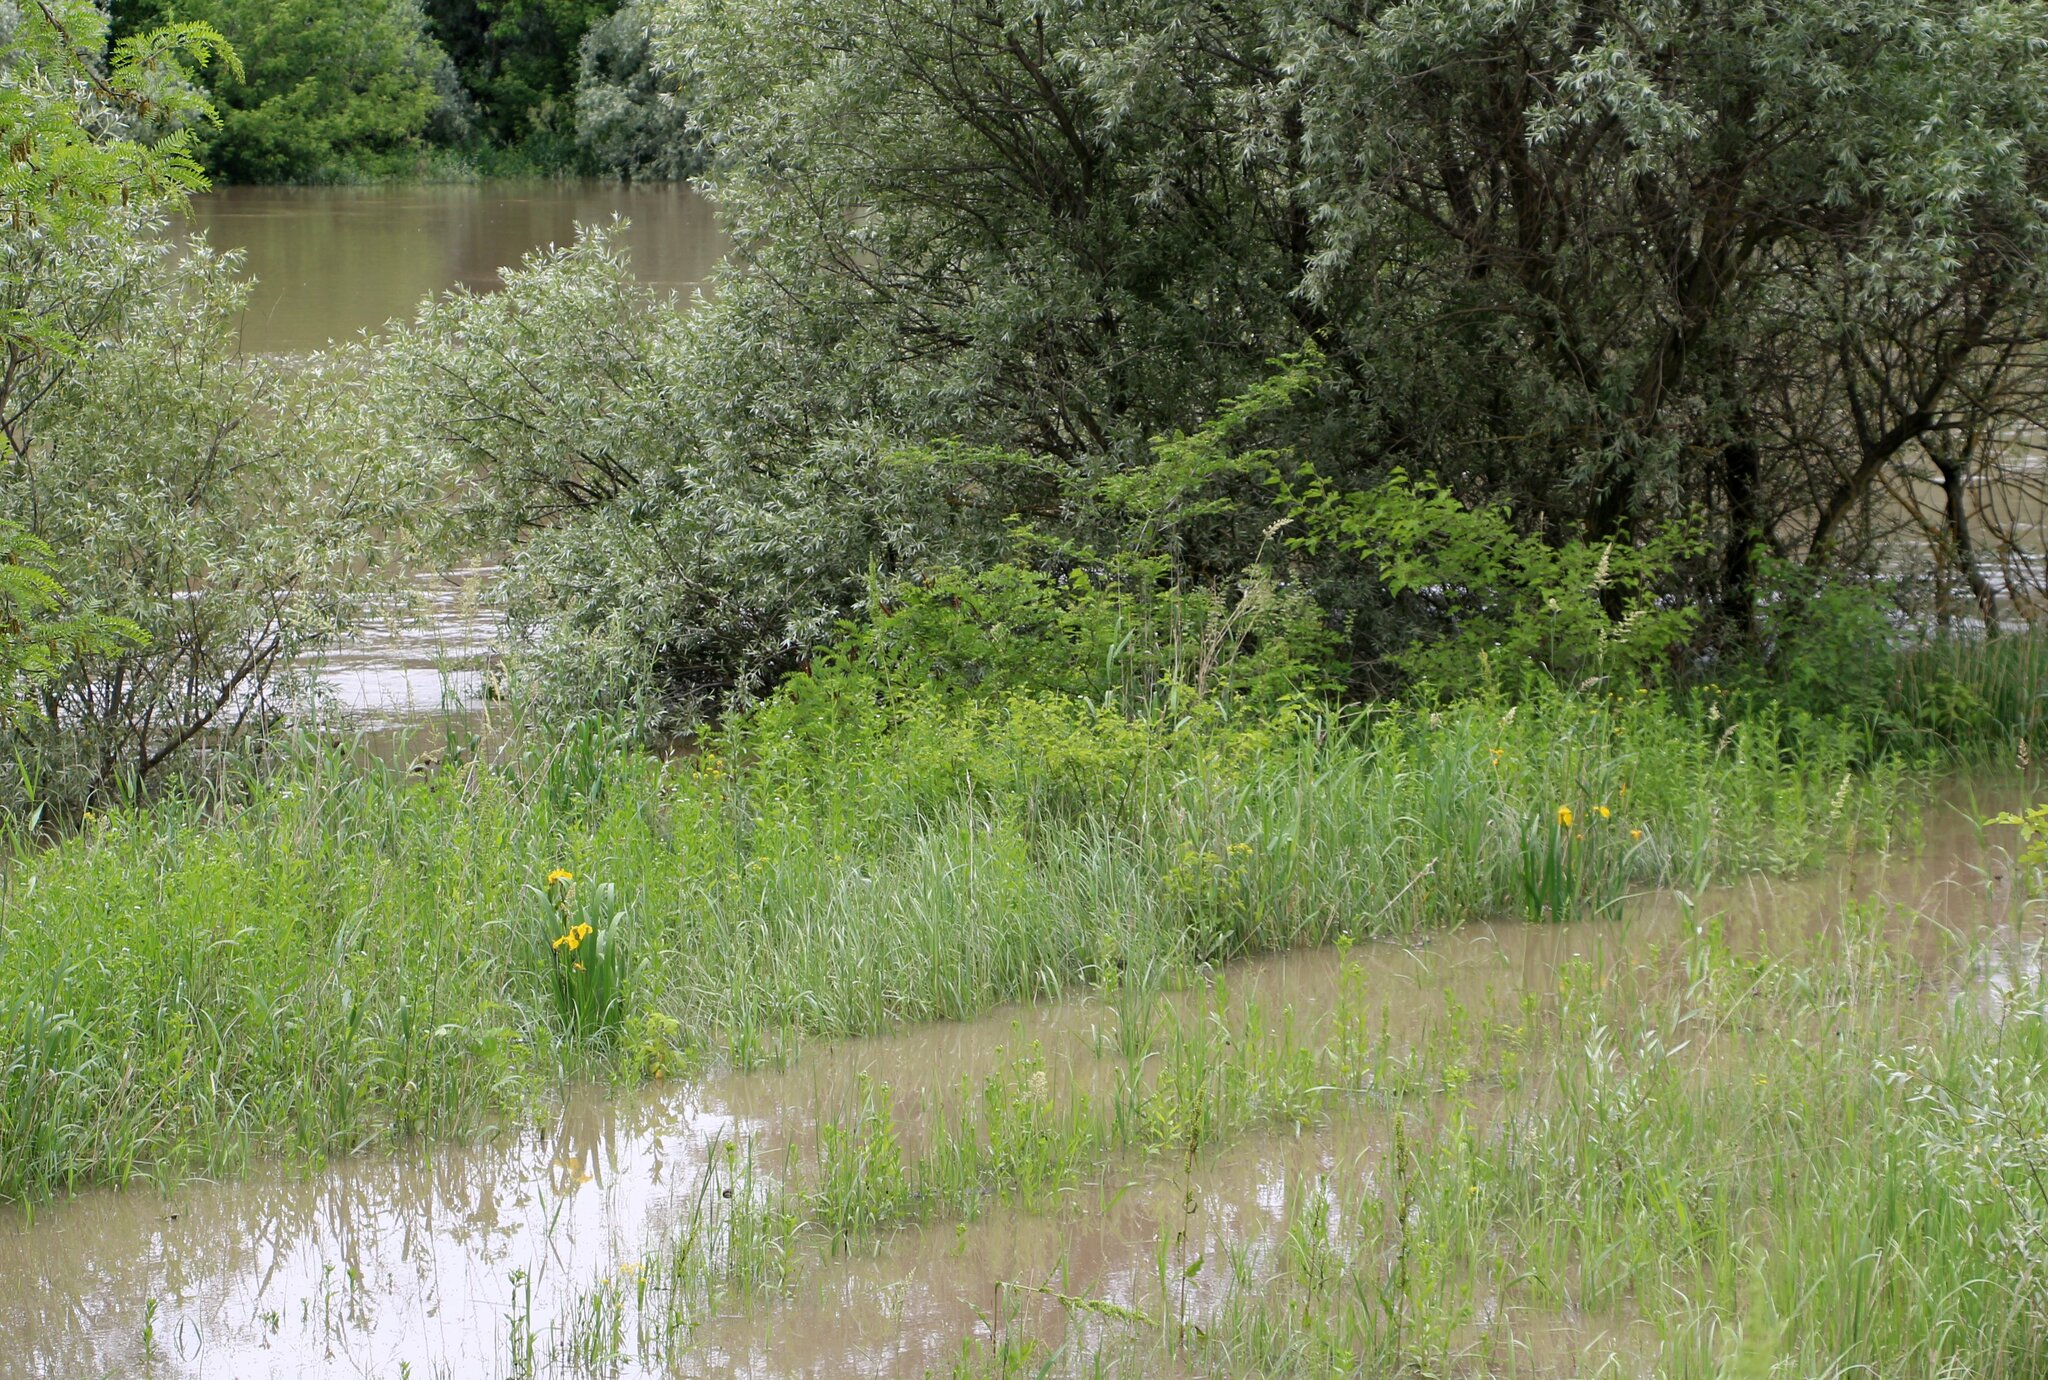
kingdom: Plantae
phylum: Tracheophyta
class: Liliopsida
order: Asparagales
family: Iridaceae
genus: Iris
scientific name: Iris pseudacorus
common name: Yellow flag
